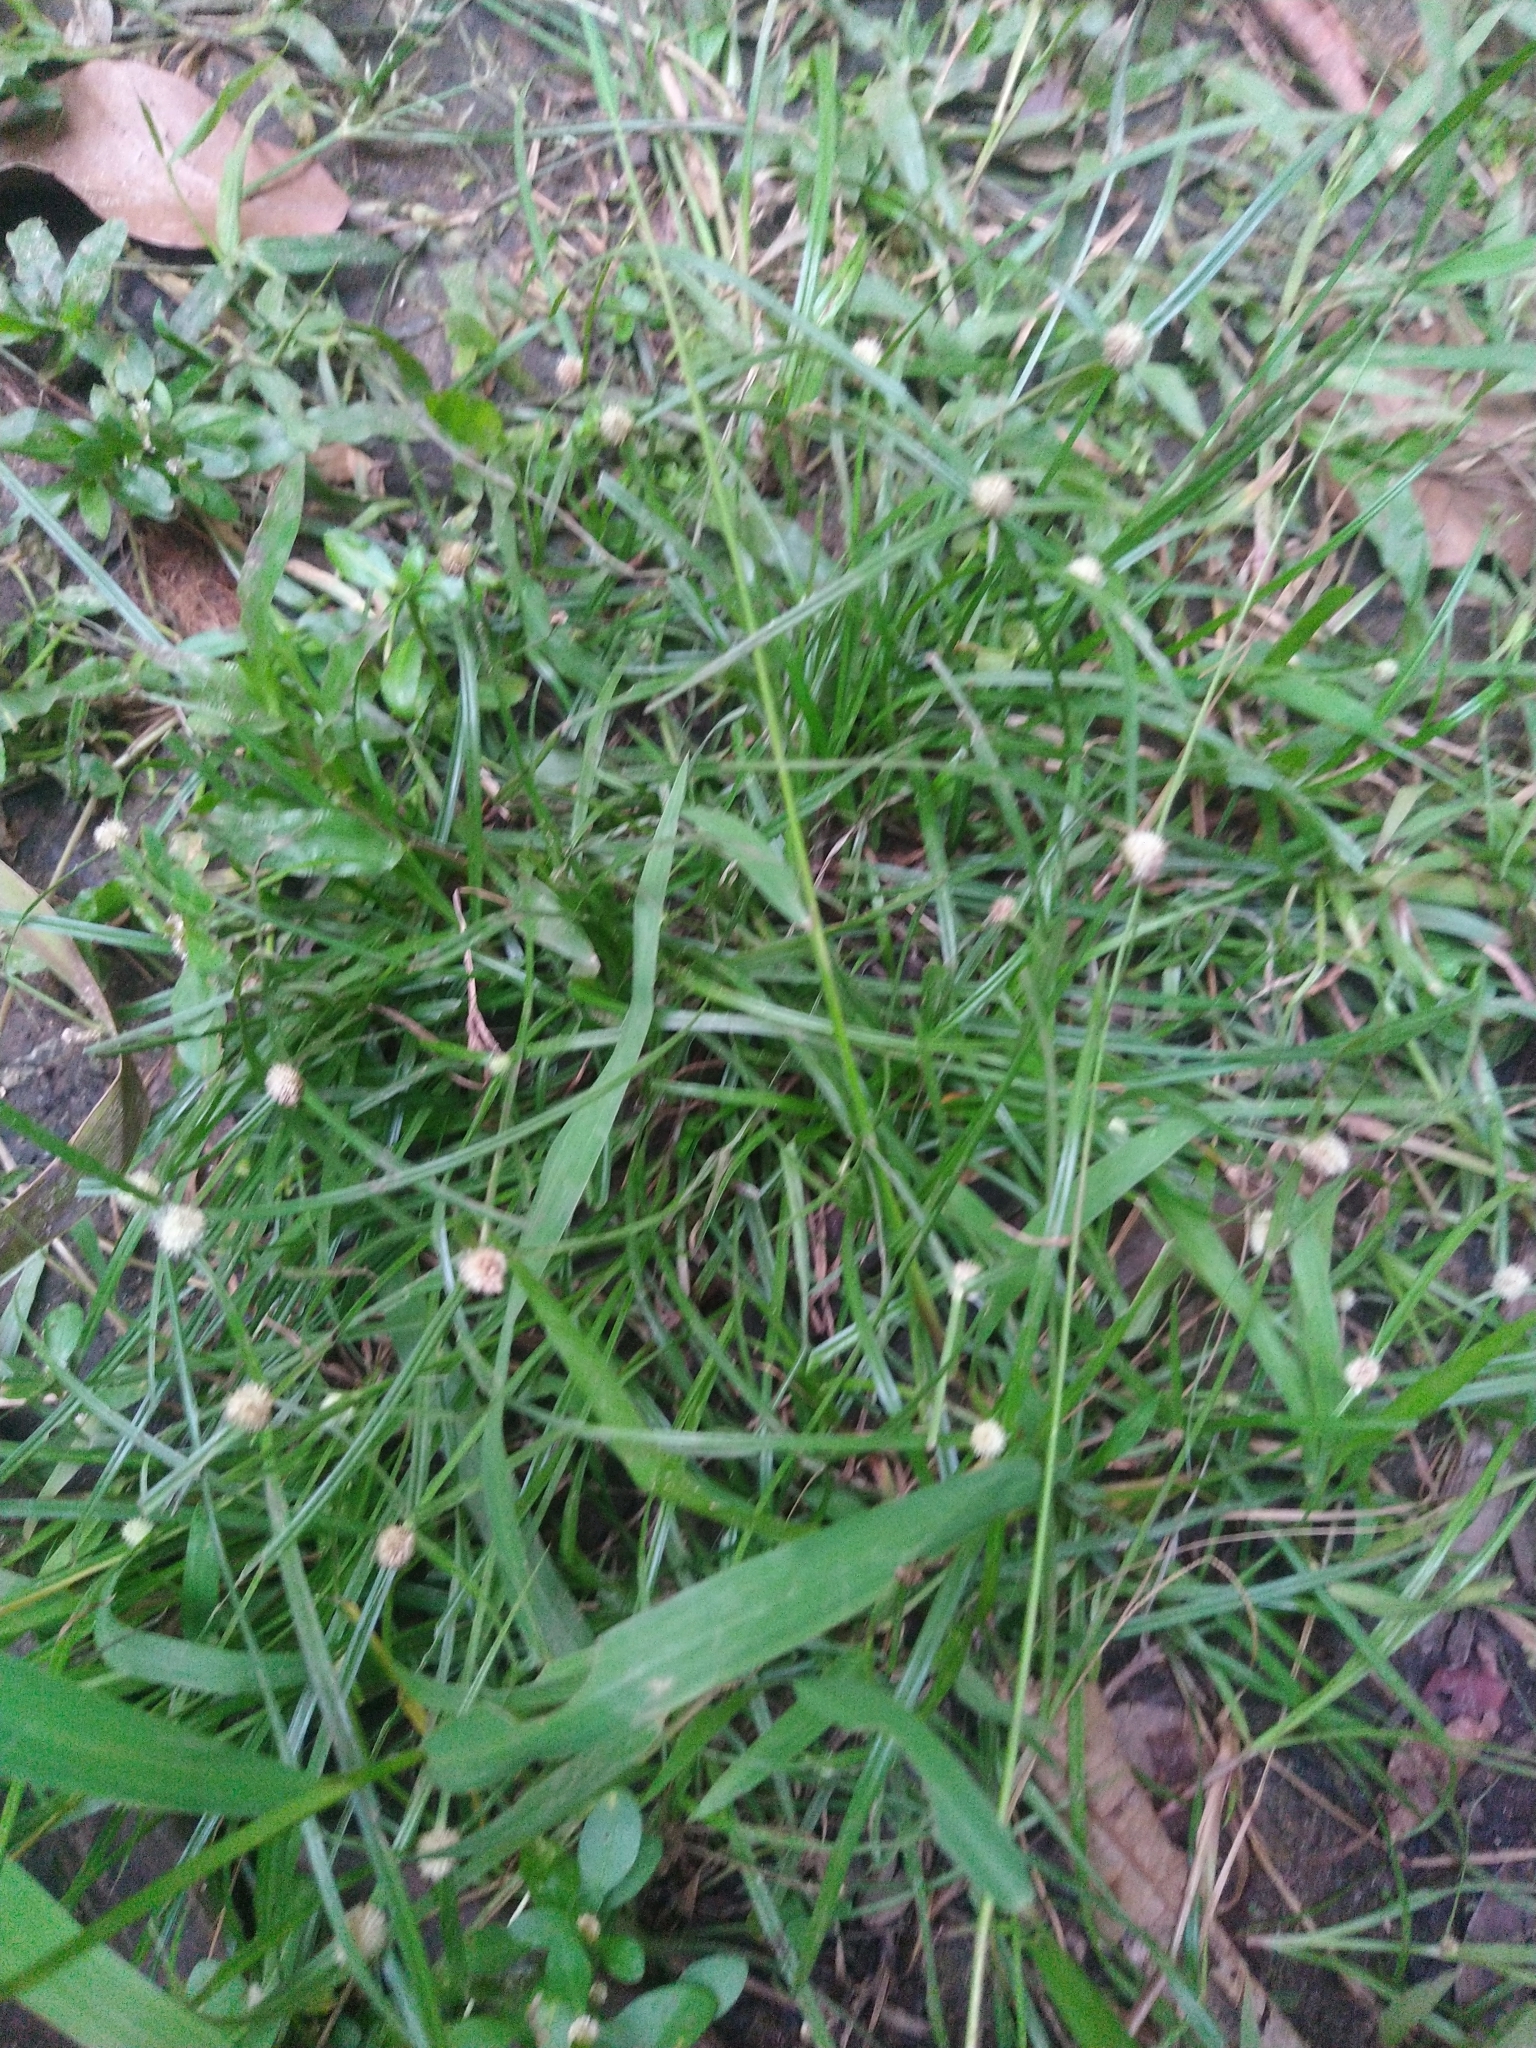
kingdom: Plantae
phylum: Tracheophyta
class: Liliopsida
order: Poales
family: Cyperaceae
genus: Cyperus
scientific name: Cyperus mindorensis
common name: Flatsedge
